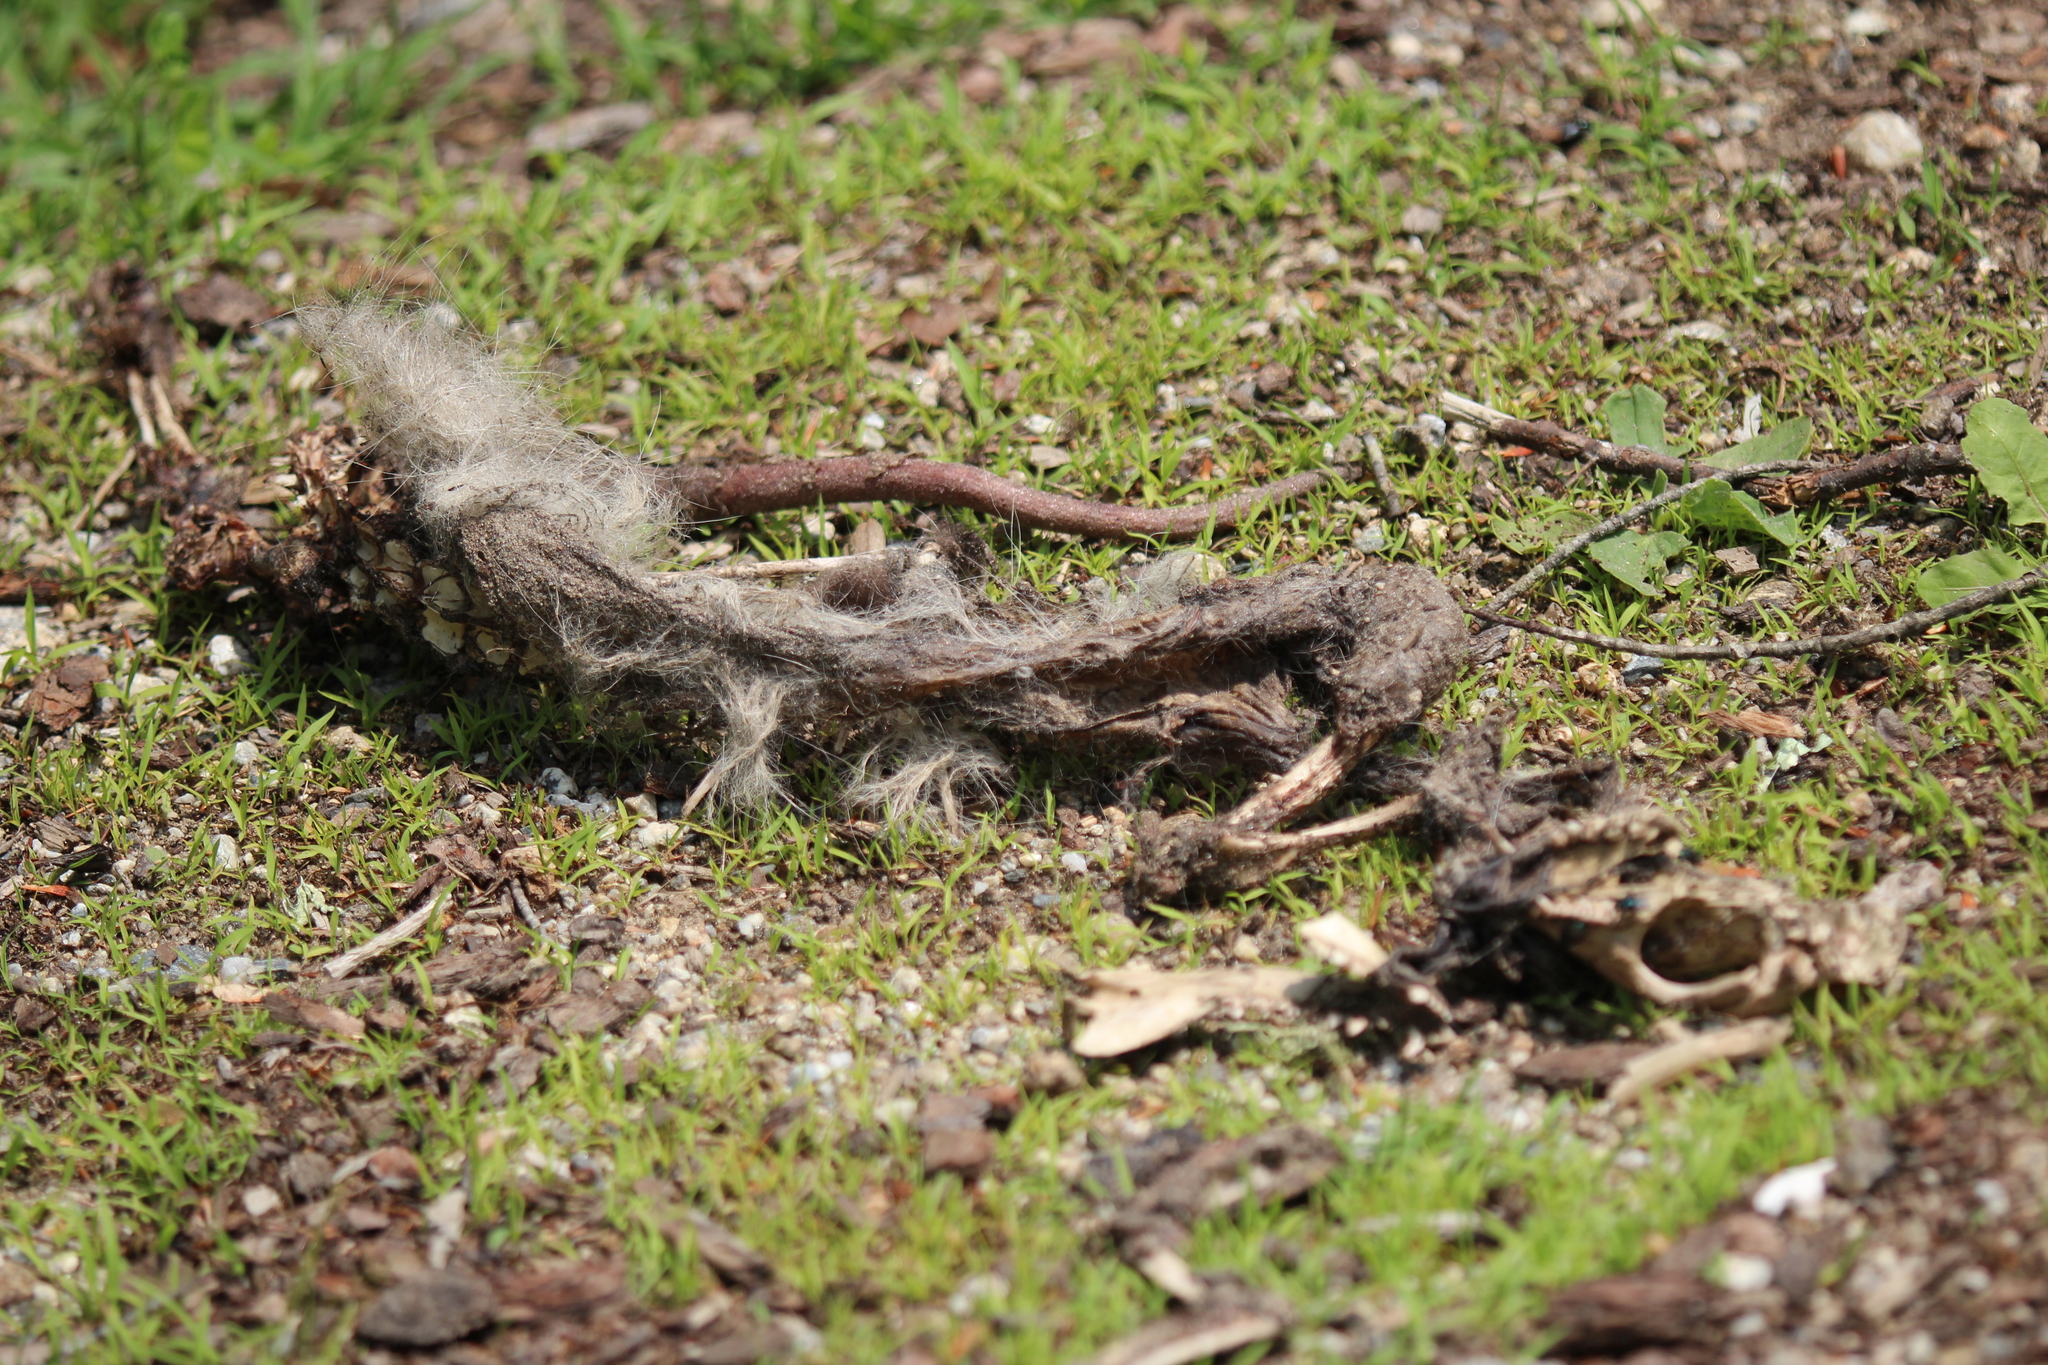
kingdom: Animalia
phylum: Chordata
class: Mammalia
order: Didelphimorphia
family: Didelphidae
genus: Didelphis
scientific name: Didelphis virginiana
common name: Virginia opossum
